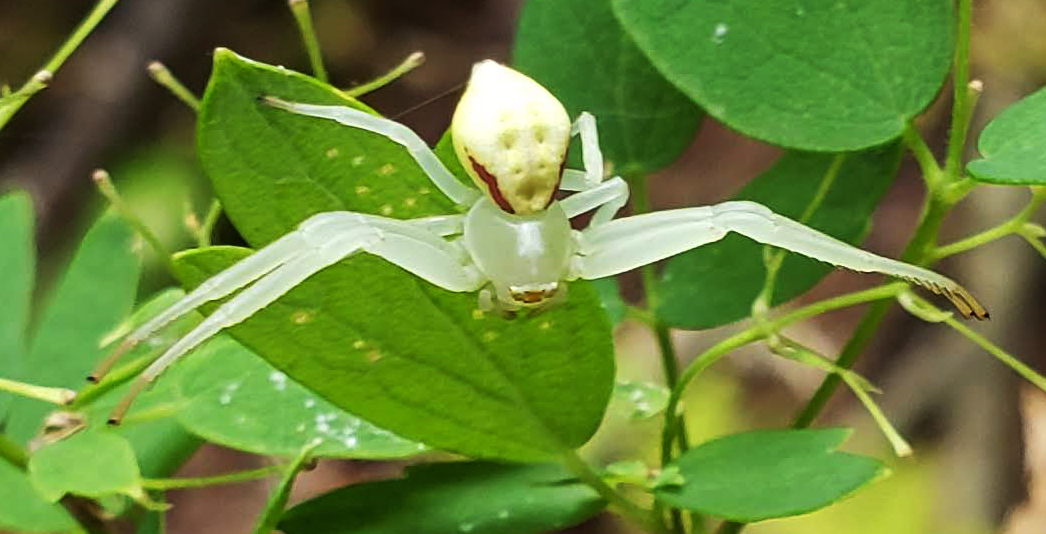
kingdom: Animalia
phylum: Arthropoda
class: Arachnida
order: Araneae
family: Thomisidae
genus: Misumena
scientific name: Misumena vatia
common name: Goldenrod crab spider
